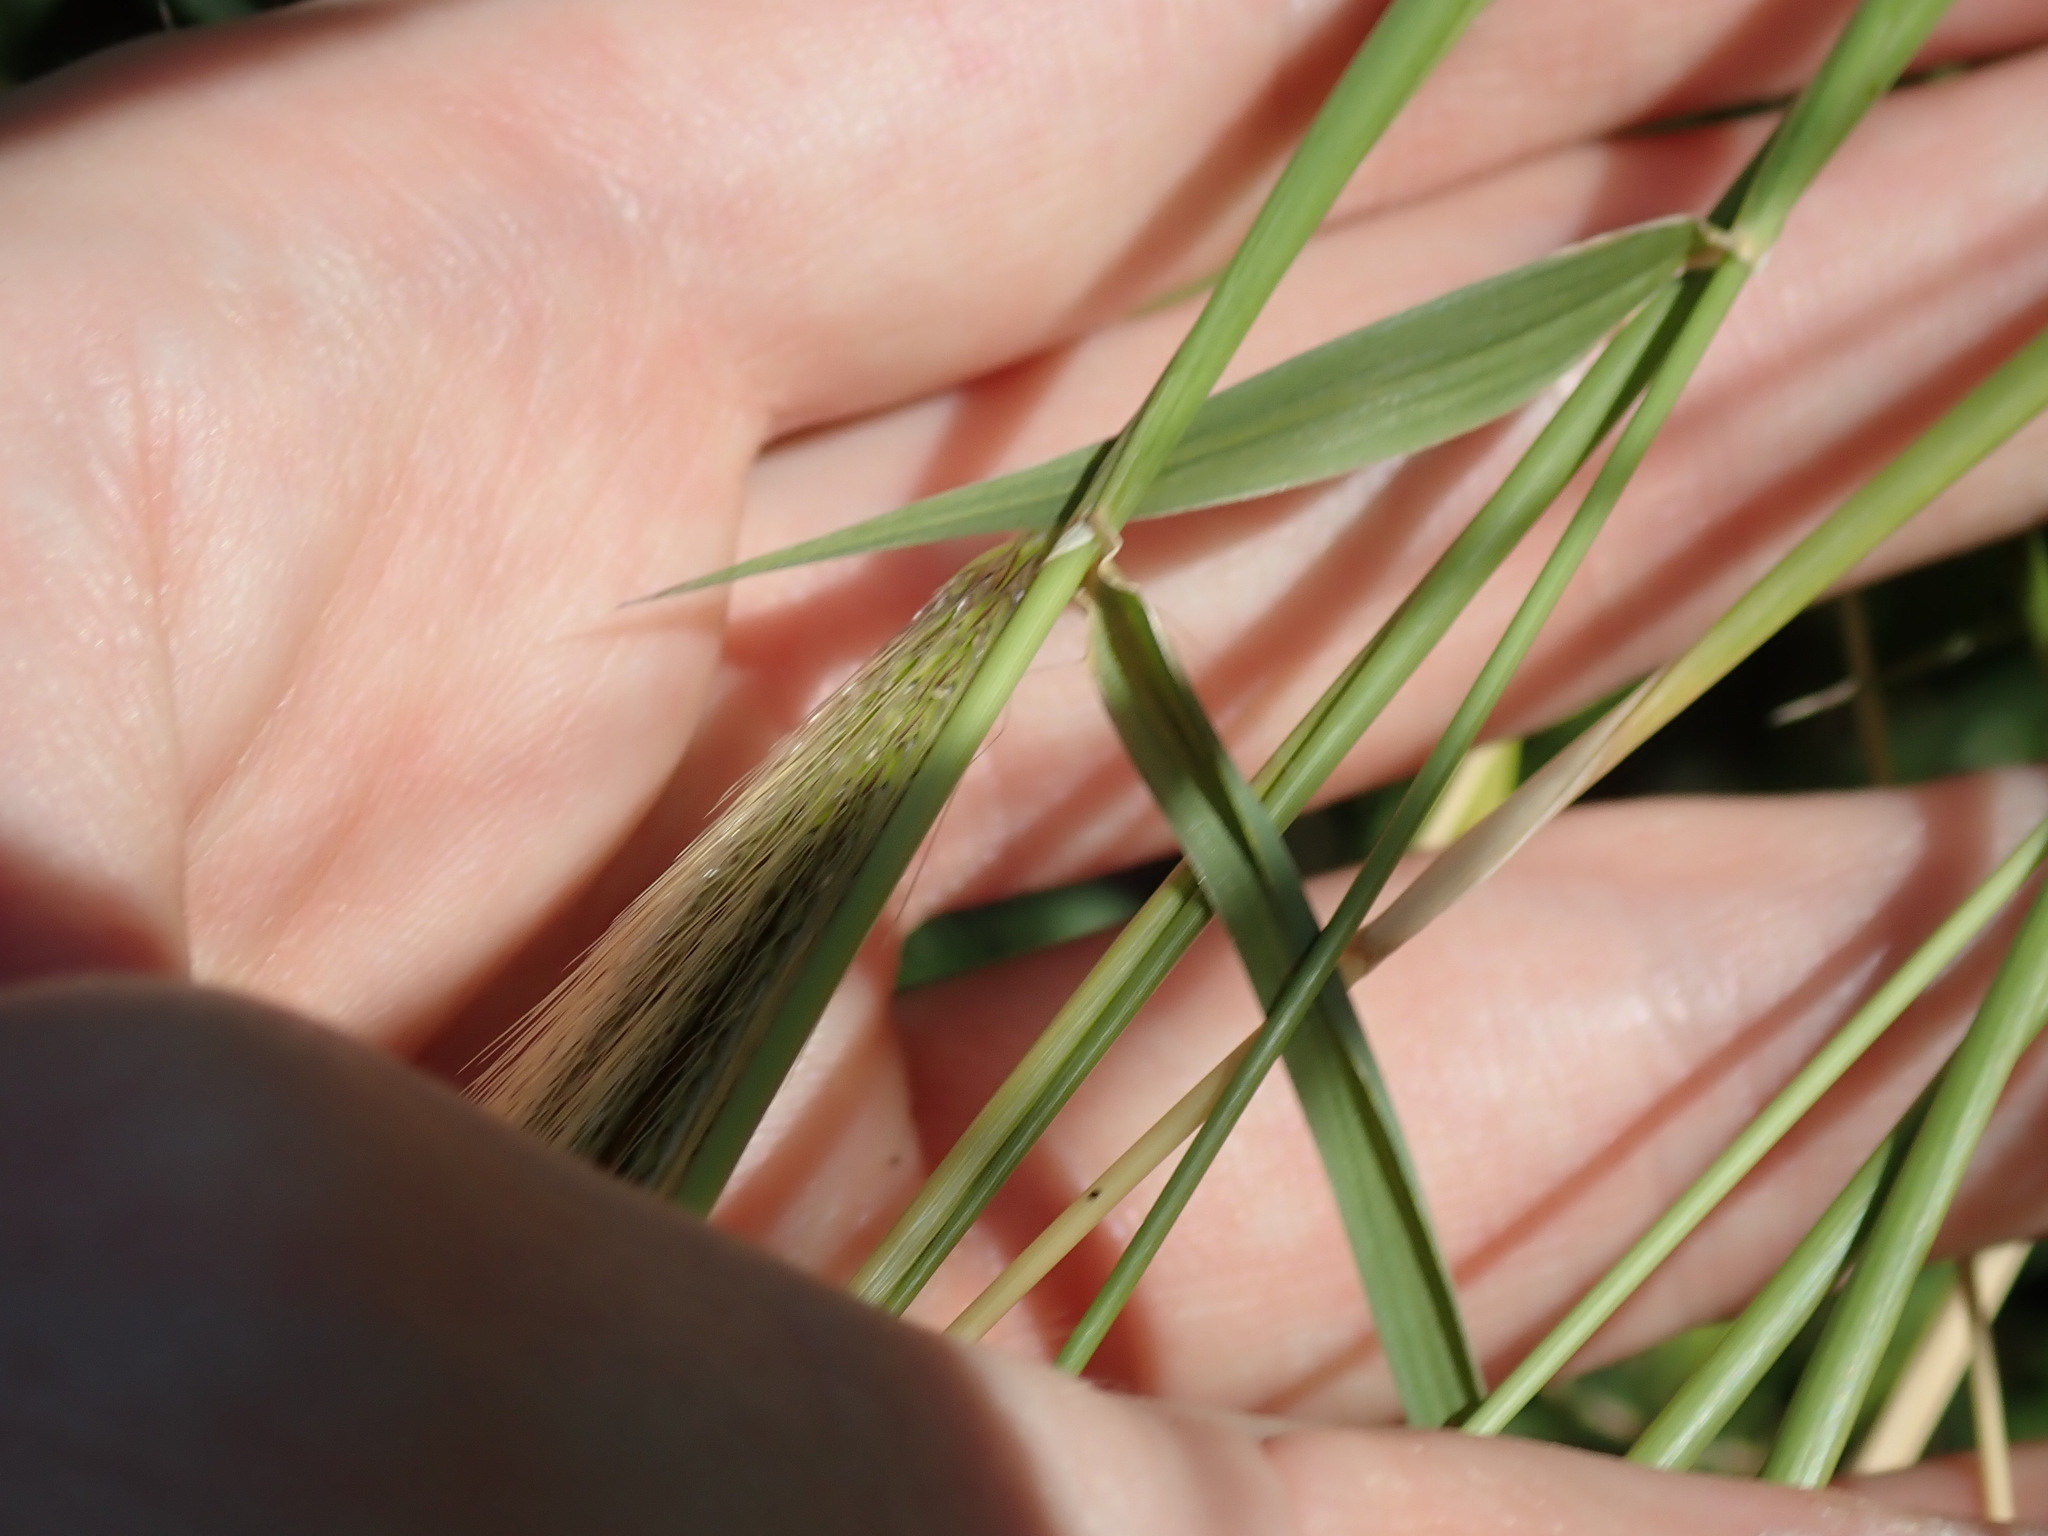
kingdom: Plantae
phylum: Tracheophyta
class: Liliopsida
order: Poales
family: Poaceae
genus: Chloris
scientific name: Chloris virgata
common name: Feathery rhodes-grass
